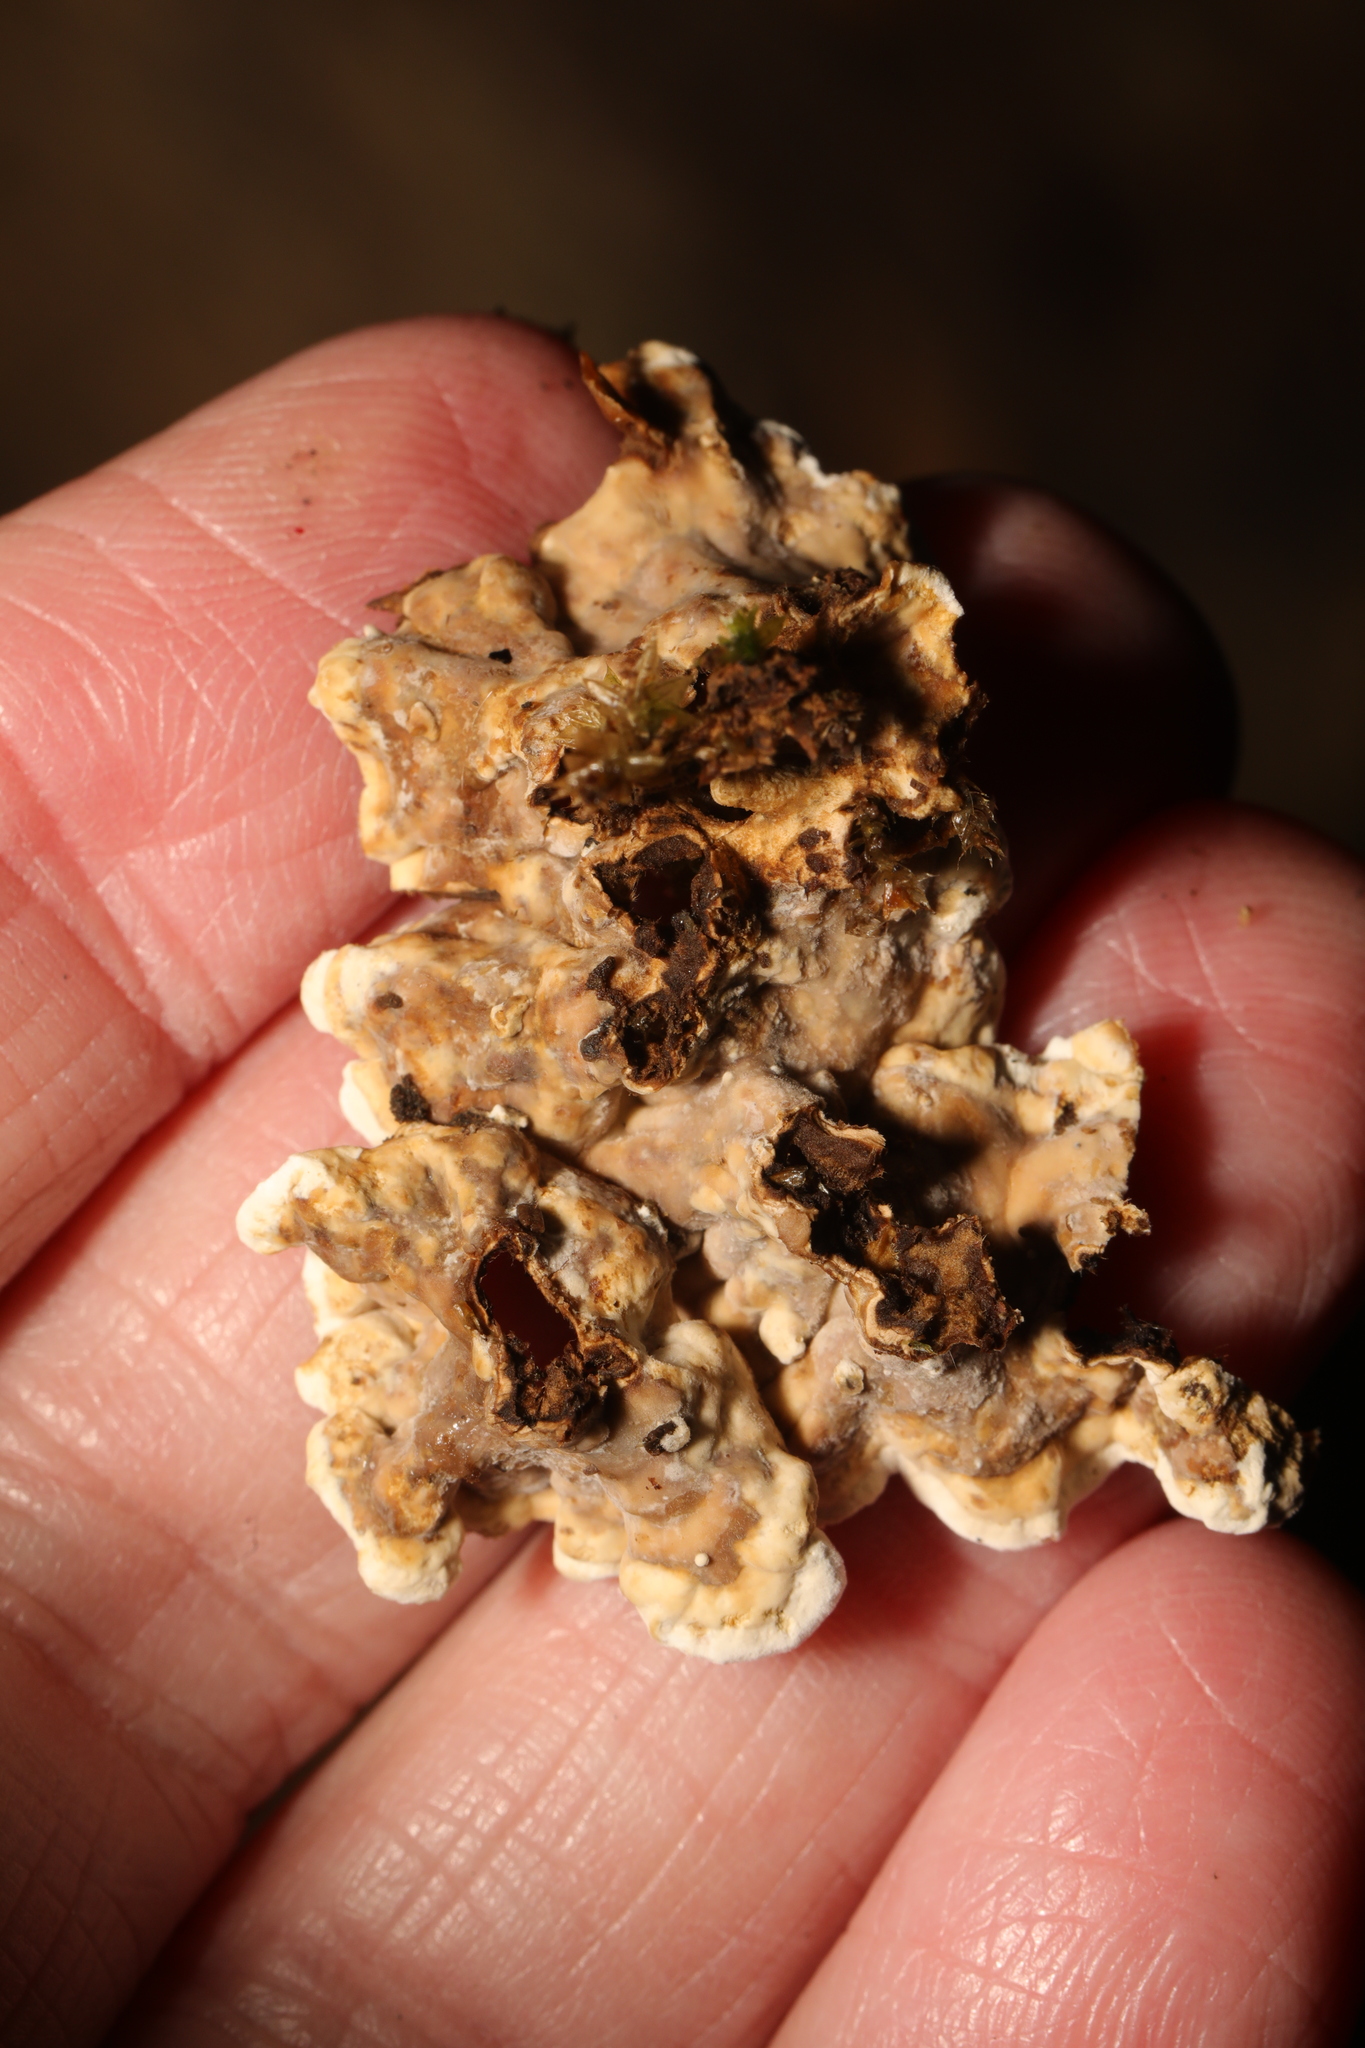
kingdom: Fungi
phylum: Basidiomycota
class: Agaricomycetes
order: Russulales
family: Stereaceae
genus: Stereum
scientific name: Stereum hirsutum
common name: Hairy curtain crust
